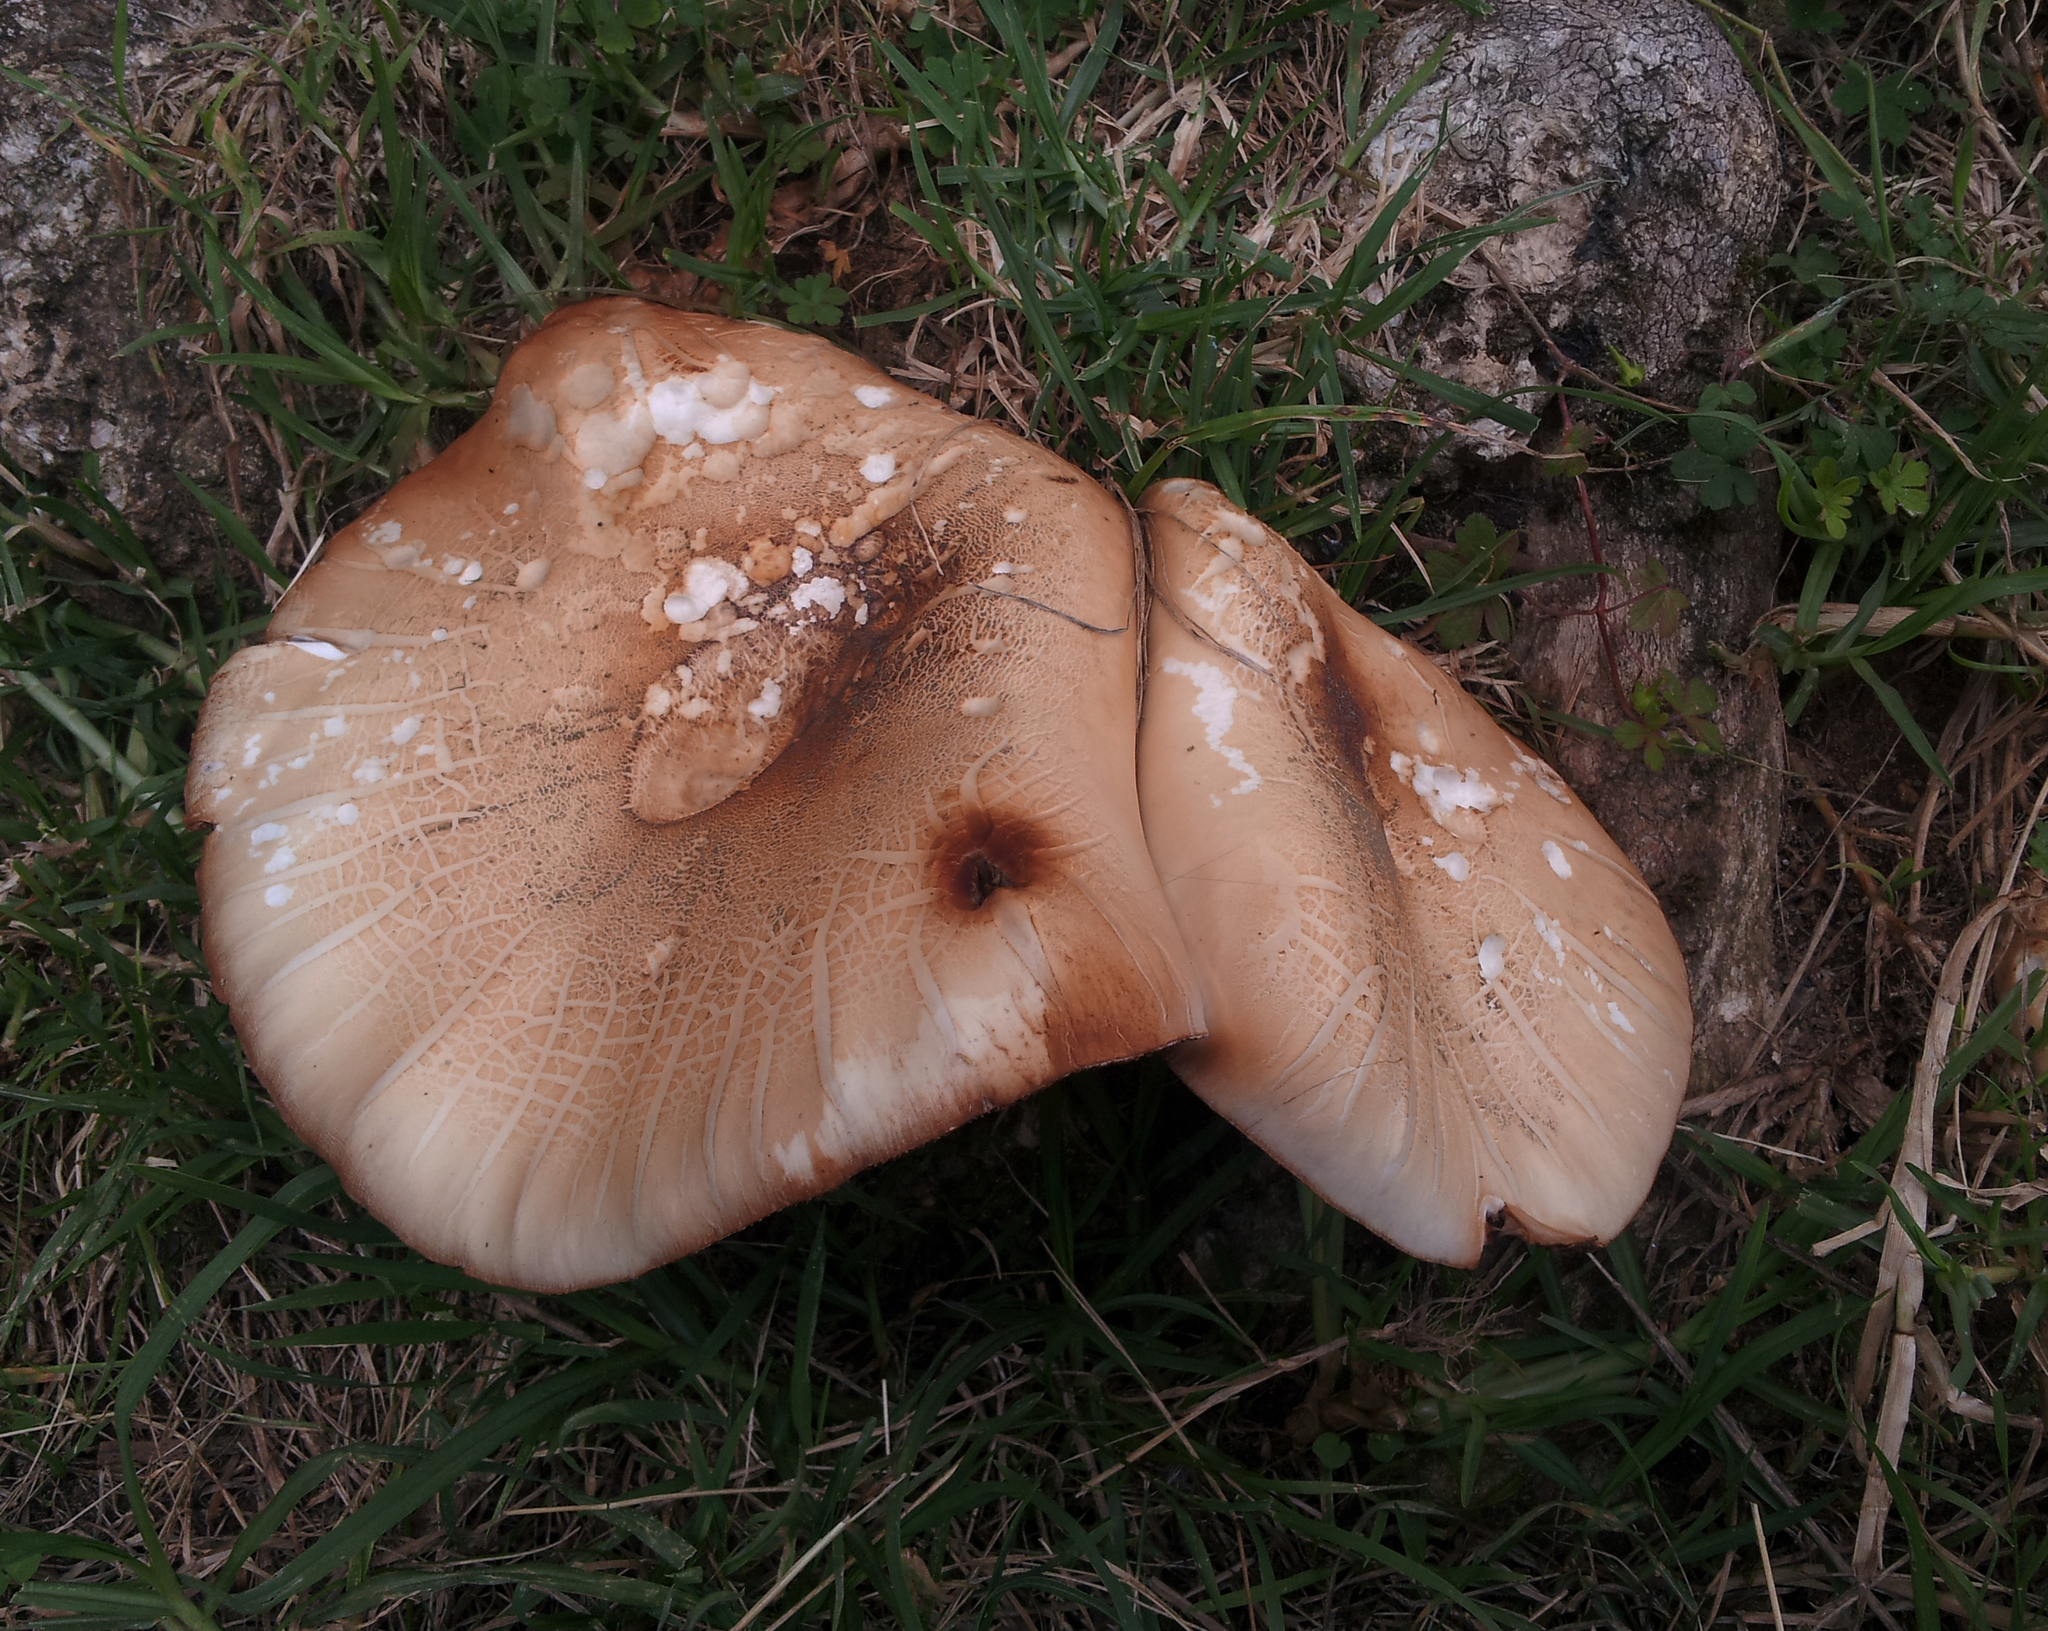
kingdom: Fungi
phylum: Basidiomycota
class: Agaricomycetes
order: Agaricales
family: Tubariaceae
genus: Cyclocybe
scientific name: Cyclocybe parasitica
